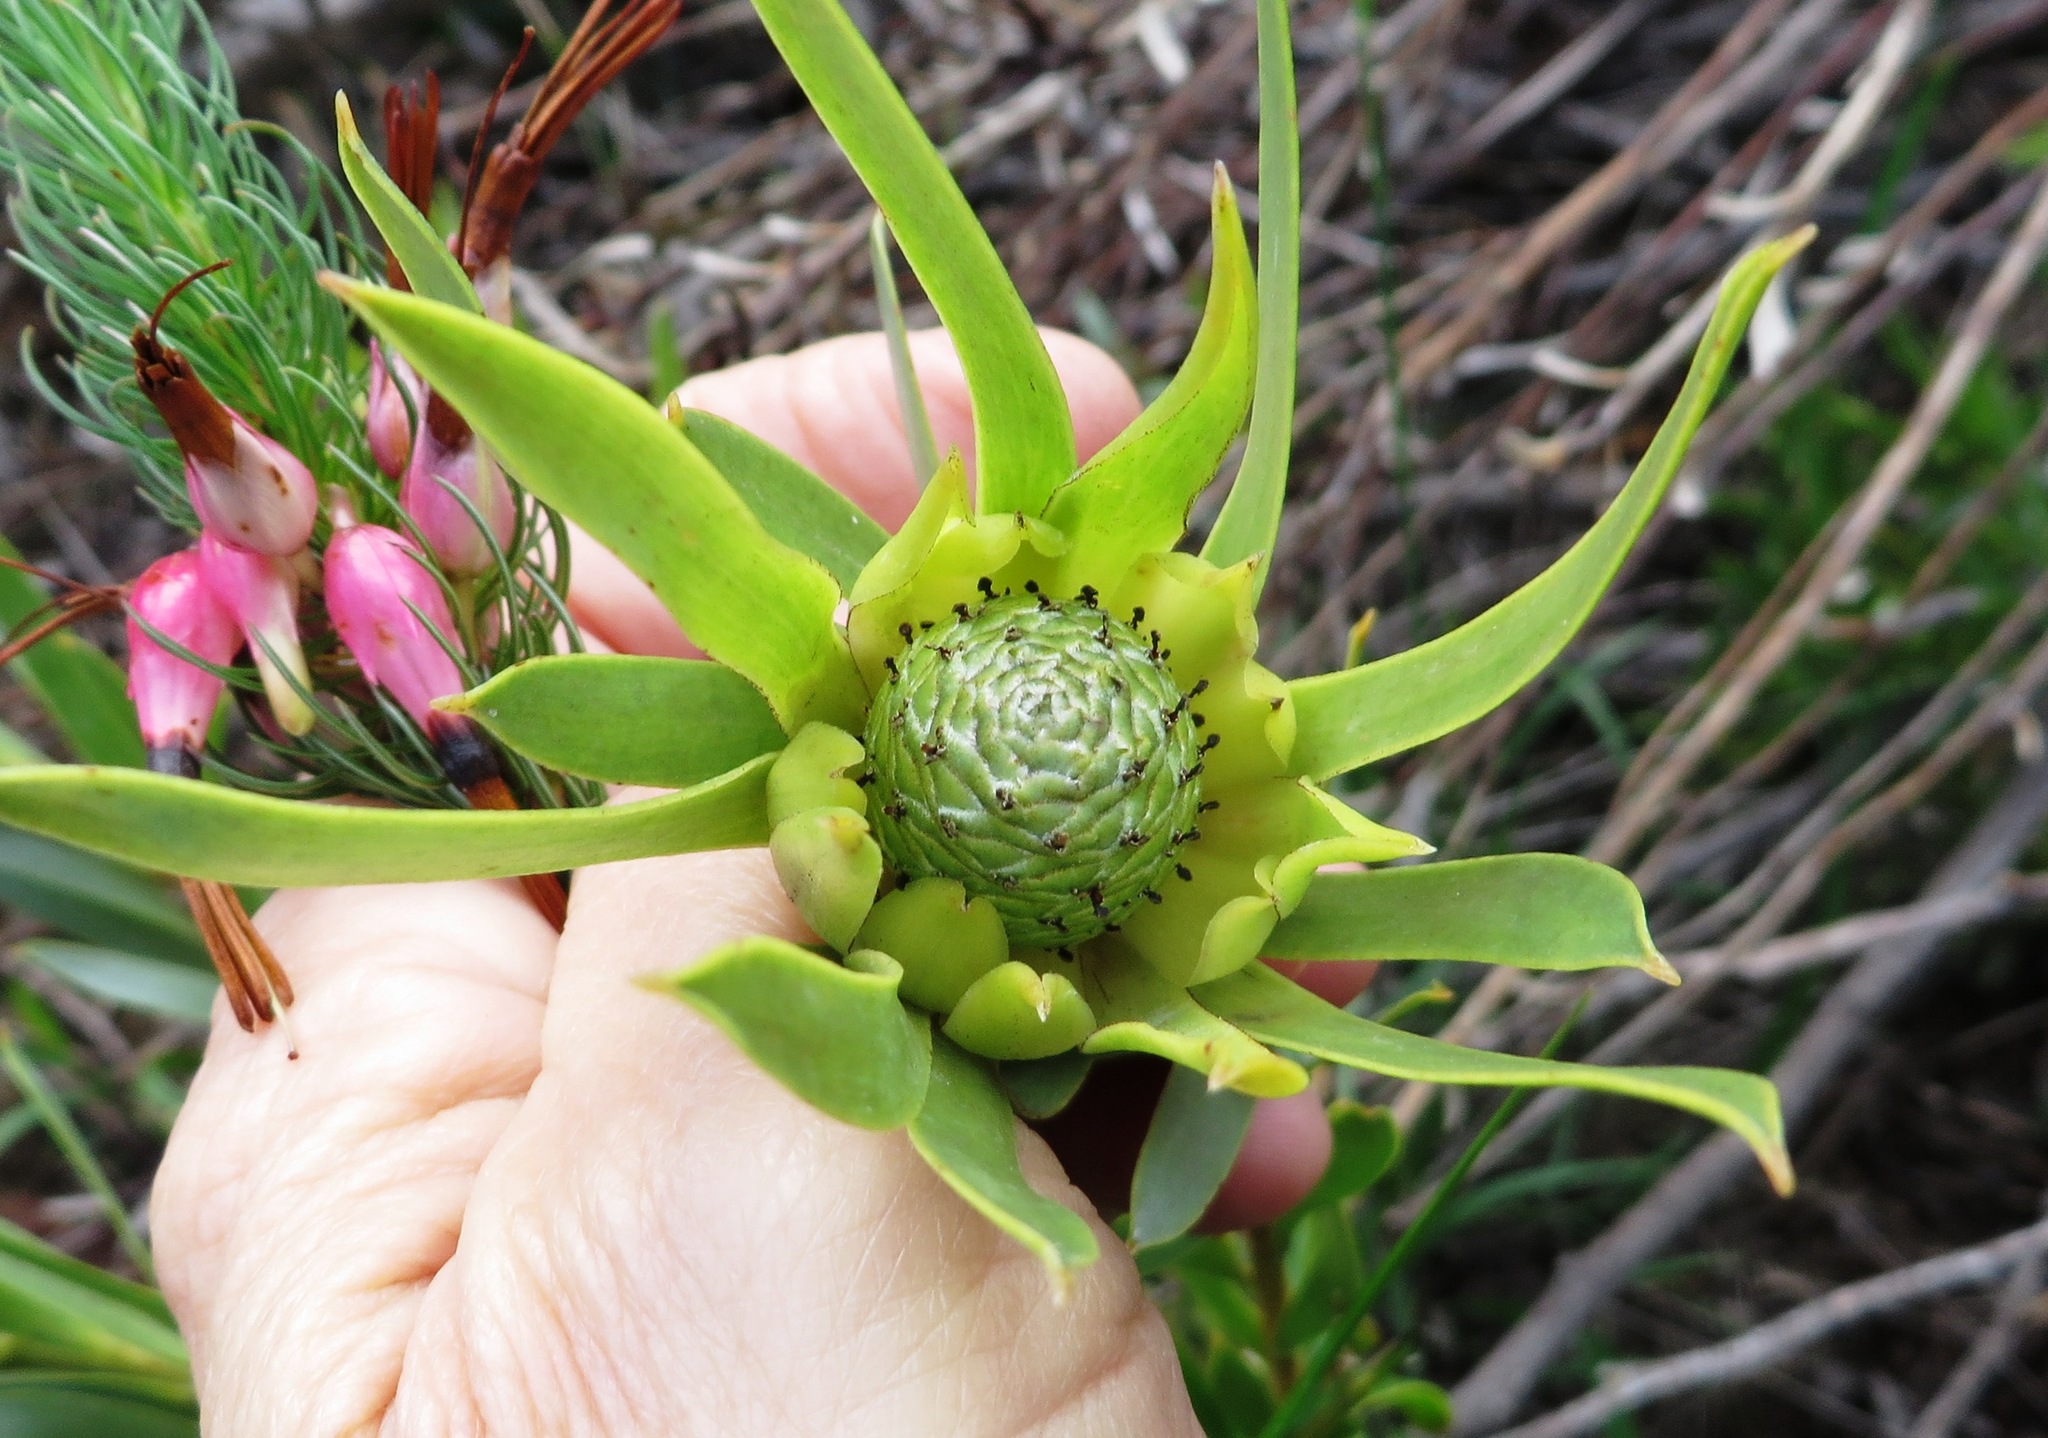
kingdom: Plantae
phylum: Tracheophyta
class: Magnoliopsida
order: Proteales
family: Proteaceae
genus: Leucadendron
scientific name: Leucadendron meridianum
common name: Limestone conebush
